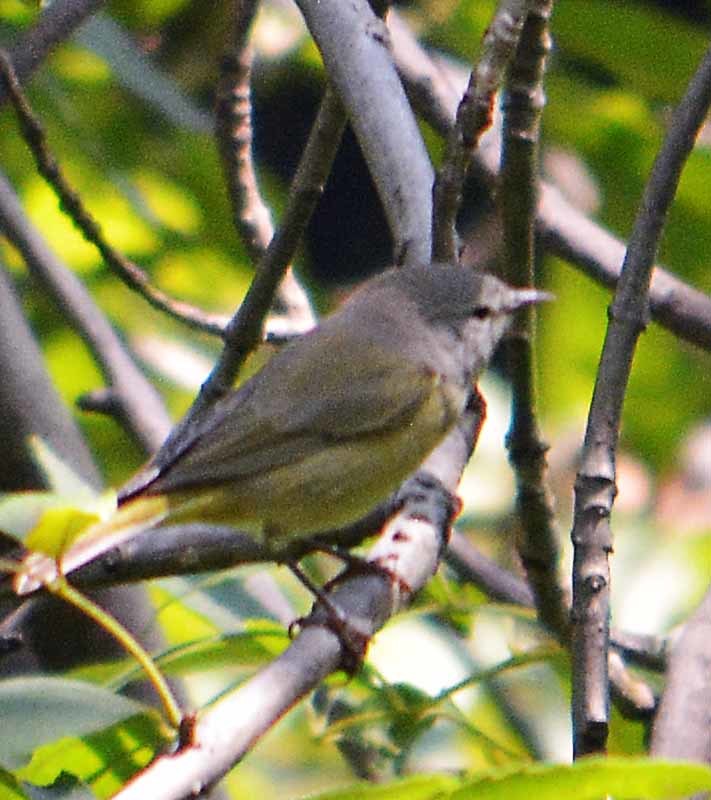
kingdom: Animalia
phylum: Chordata
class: Aves
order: Passeriformes
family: Parulidae
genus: Leiothlypis
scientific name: Leiothlypis celata
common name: Orange-crowned warbler
